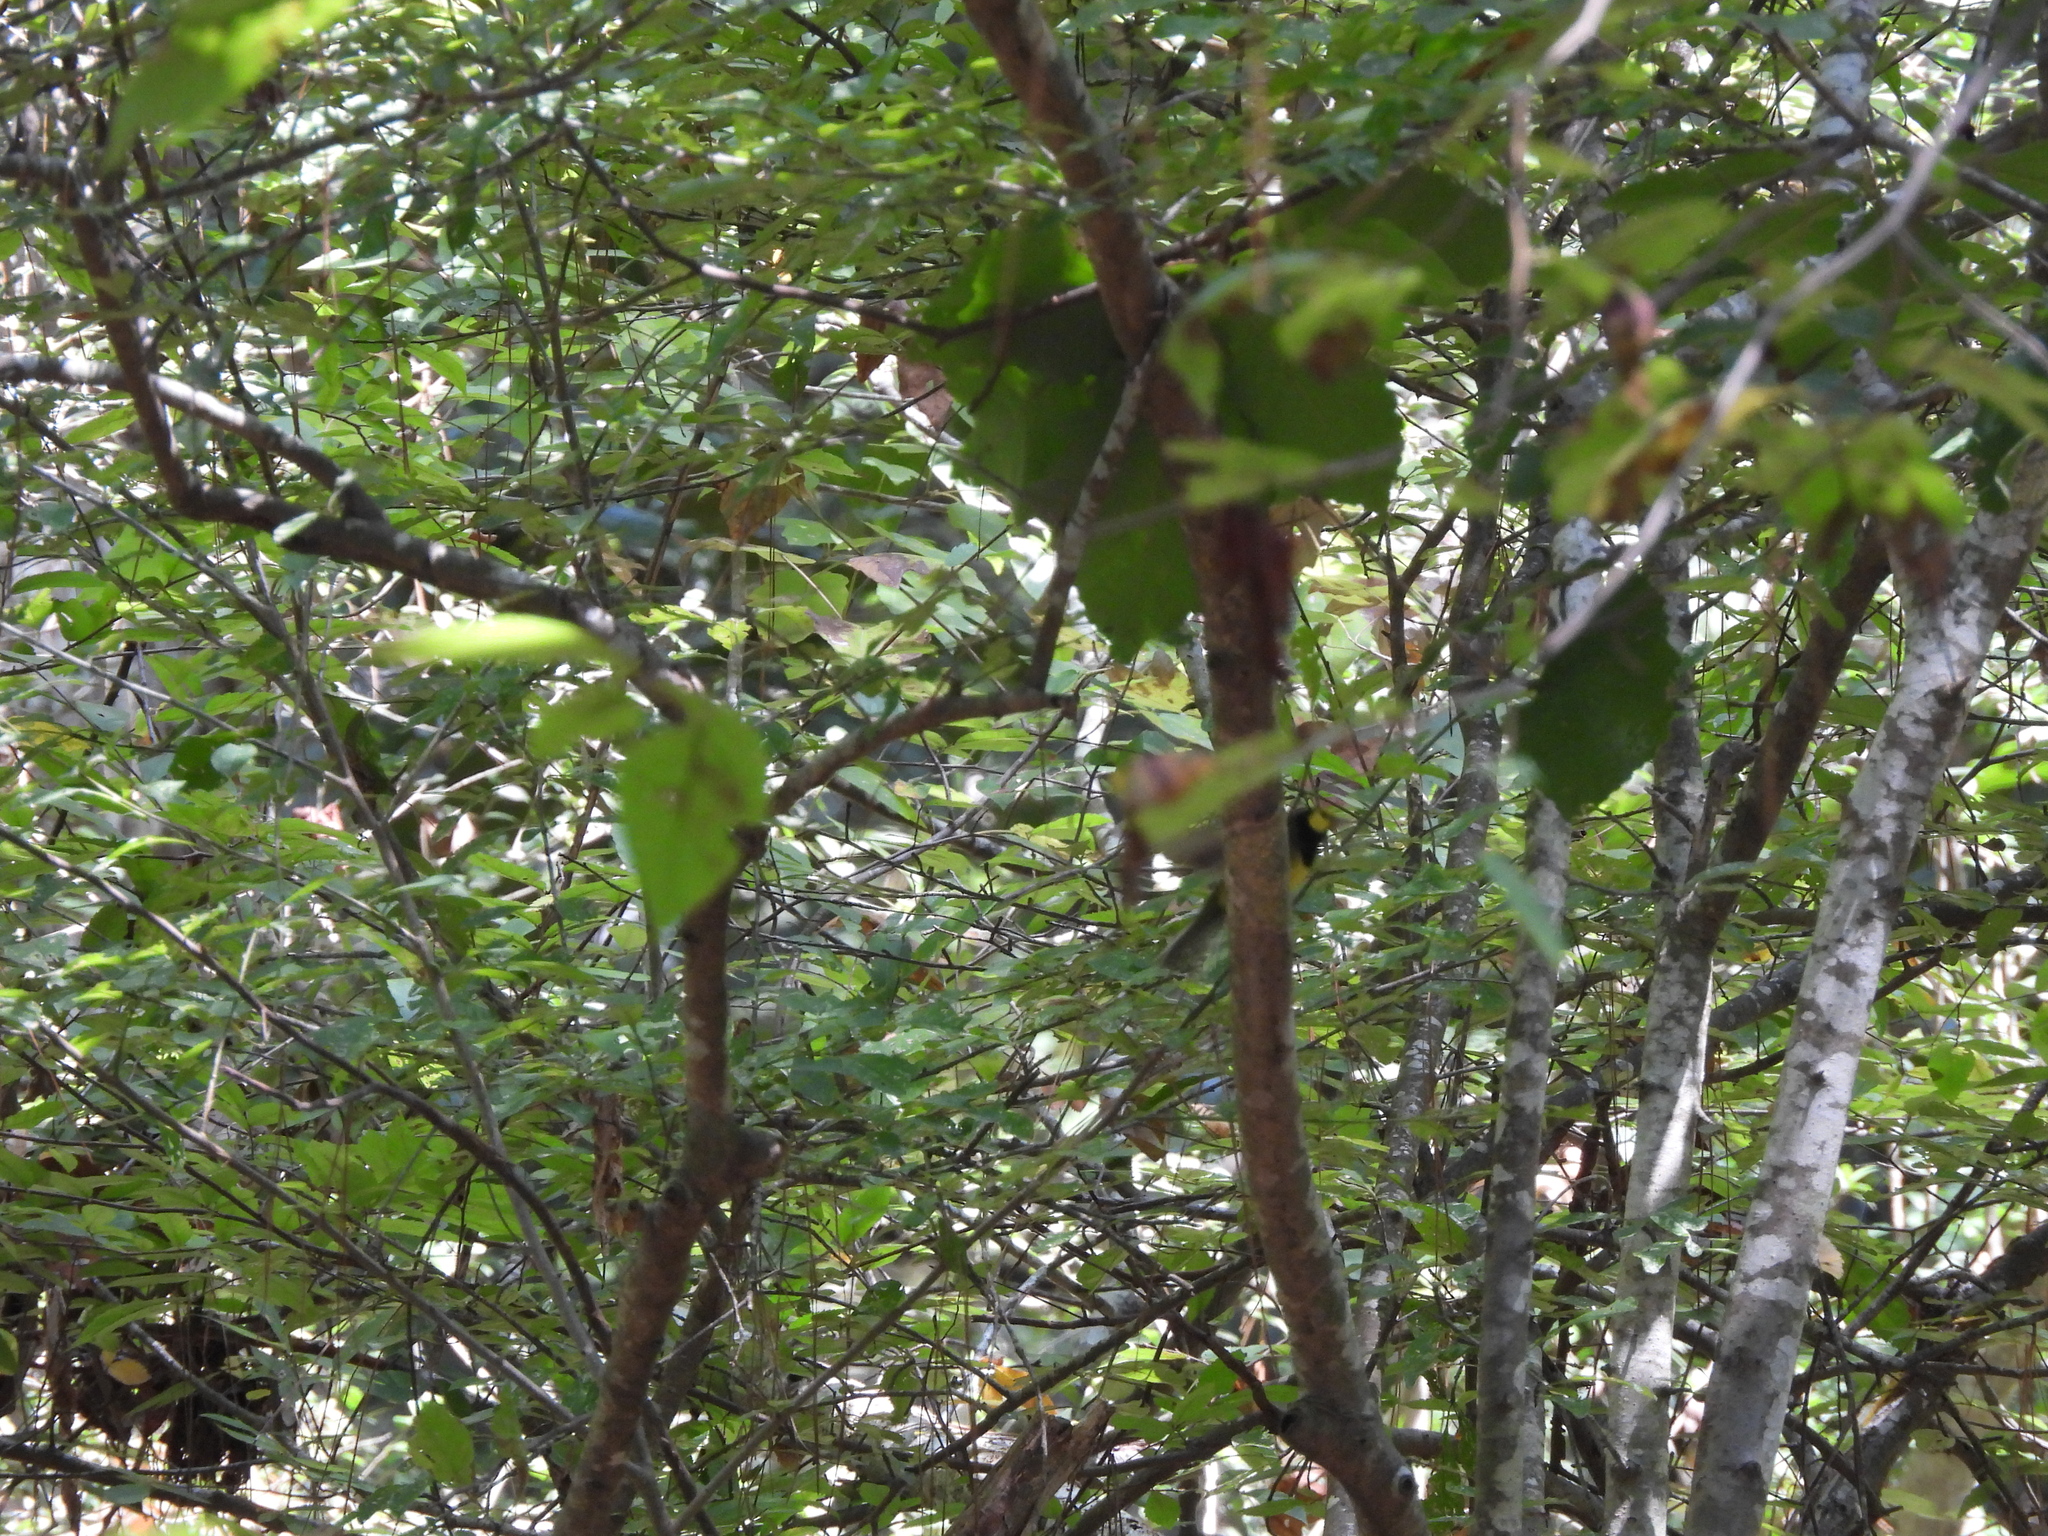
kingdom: Animalia
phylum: Chordata
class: Aves
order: Passeriformes
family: Parulidae
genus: Setophaga
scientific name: Setophaga citrina
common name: Hooded warbler
